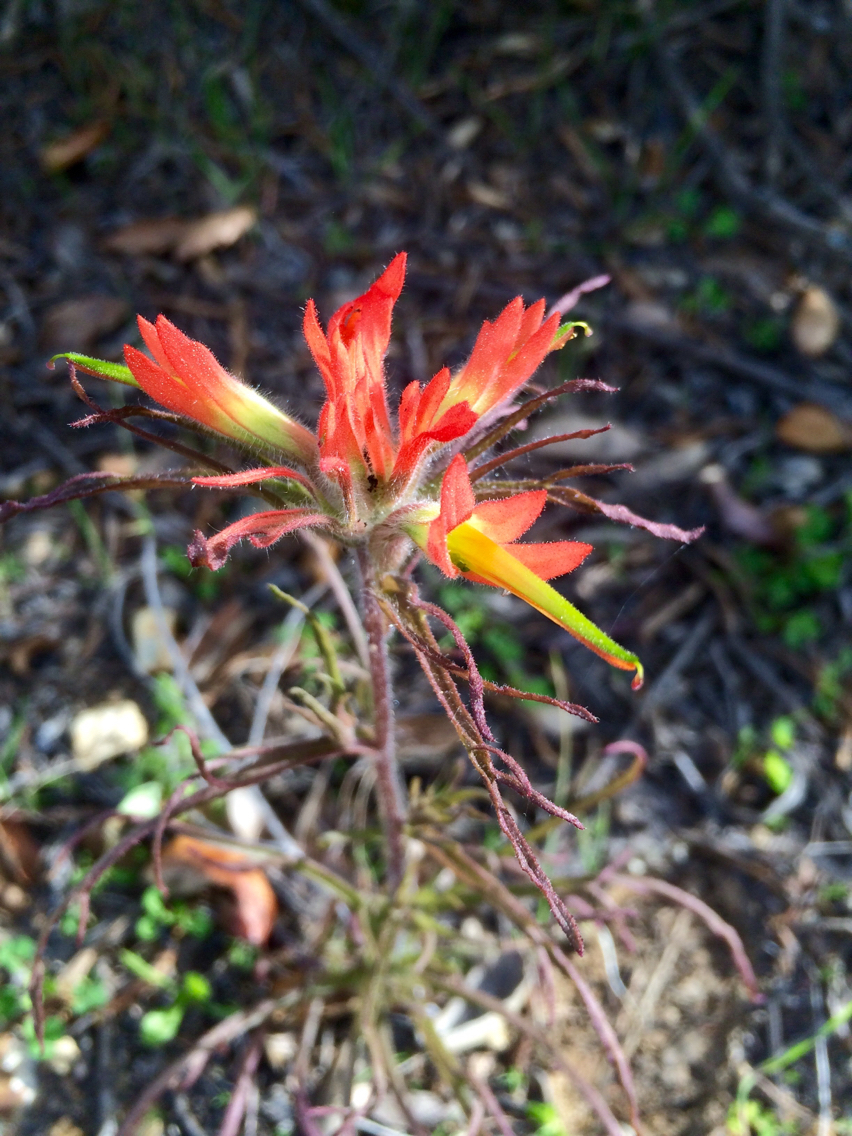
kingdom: Plantae
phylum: Tracheophyta
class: Magnoliopsida
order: Lamiales
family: Orobanchaceae
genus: Castilleja
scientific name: Castilleja affinis
